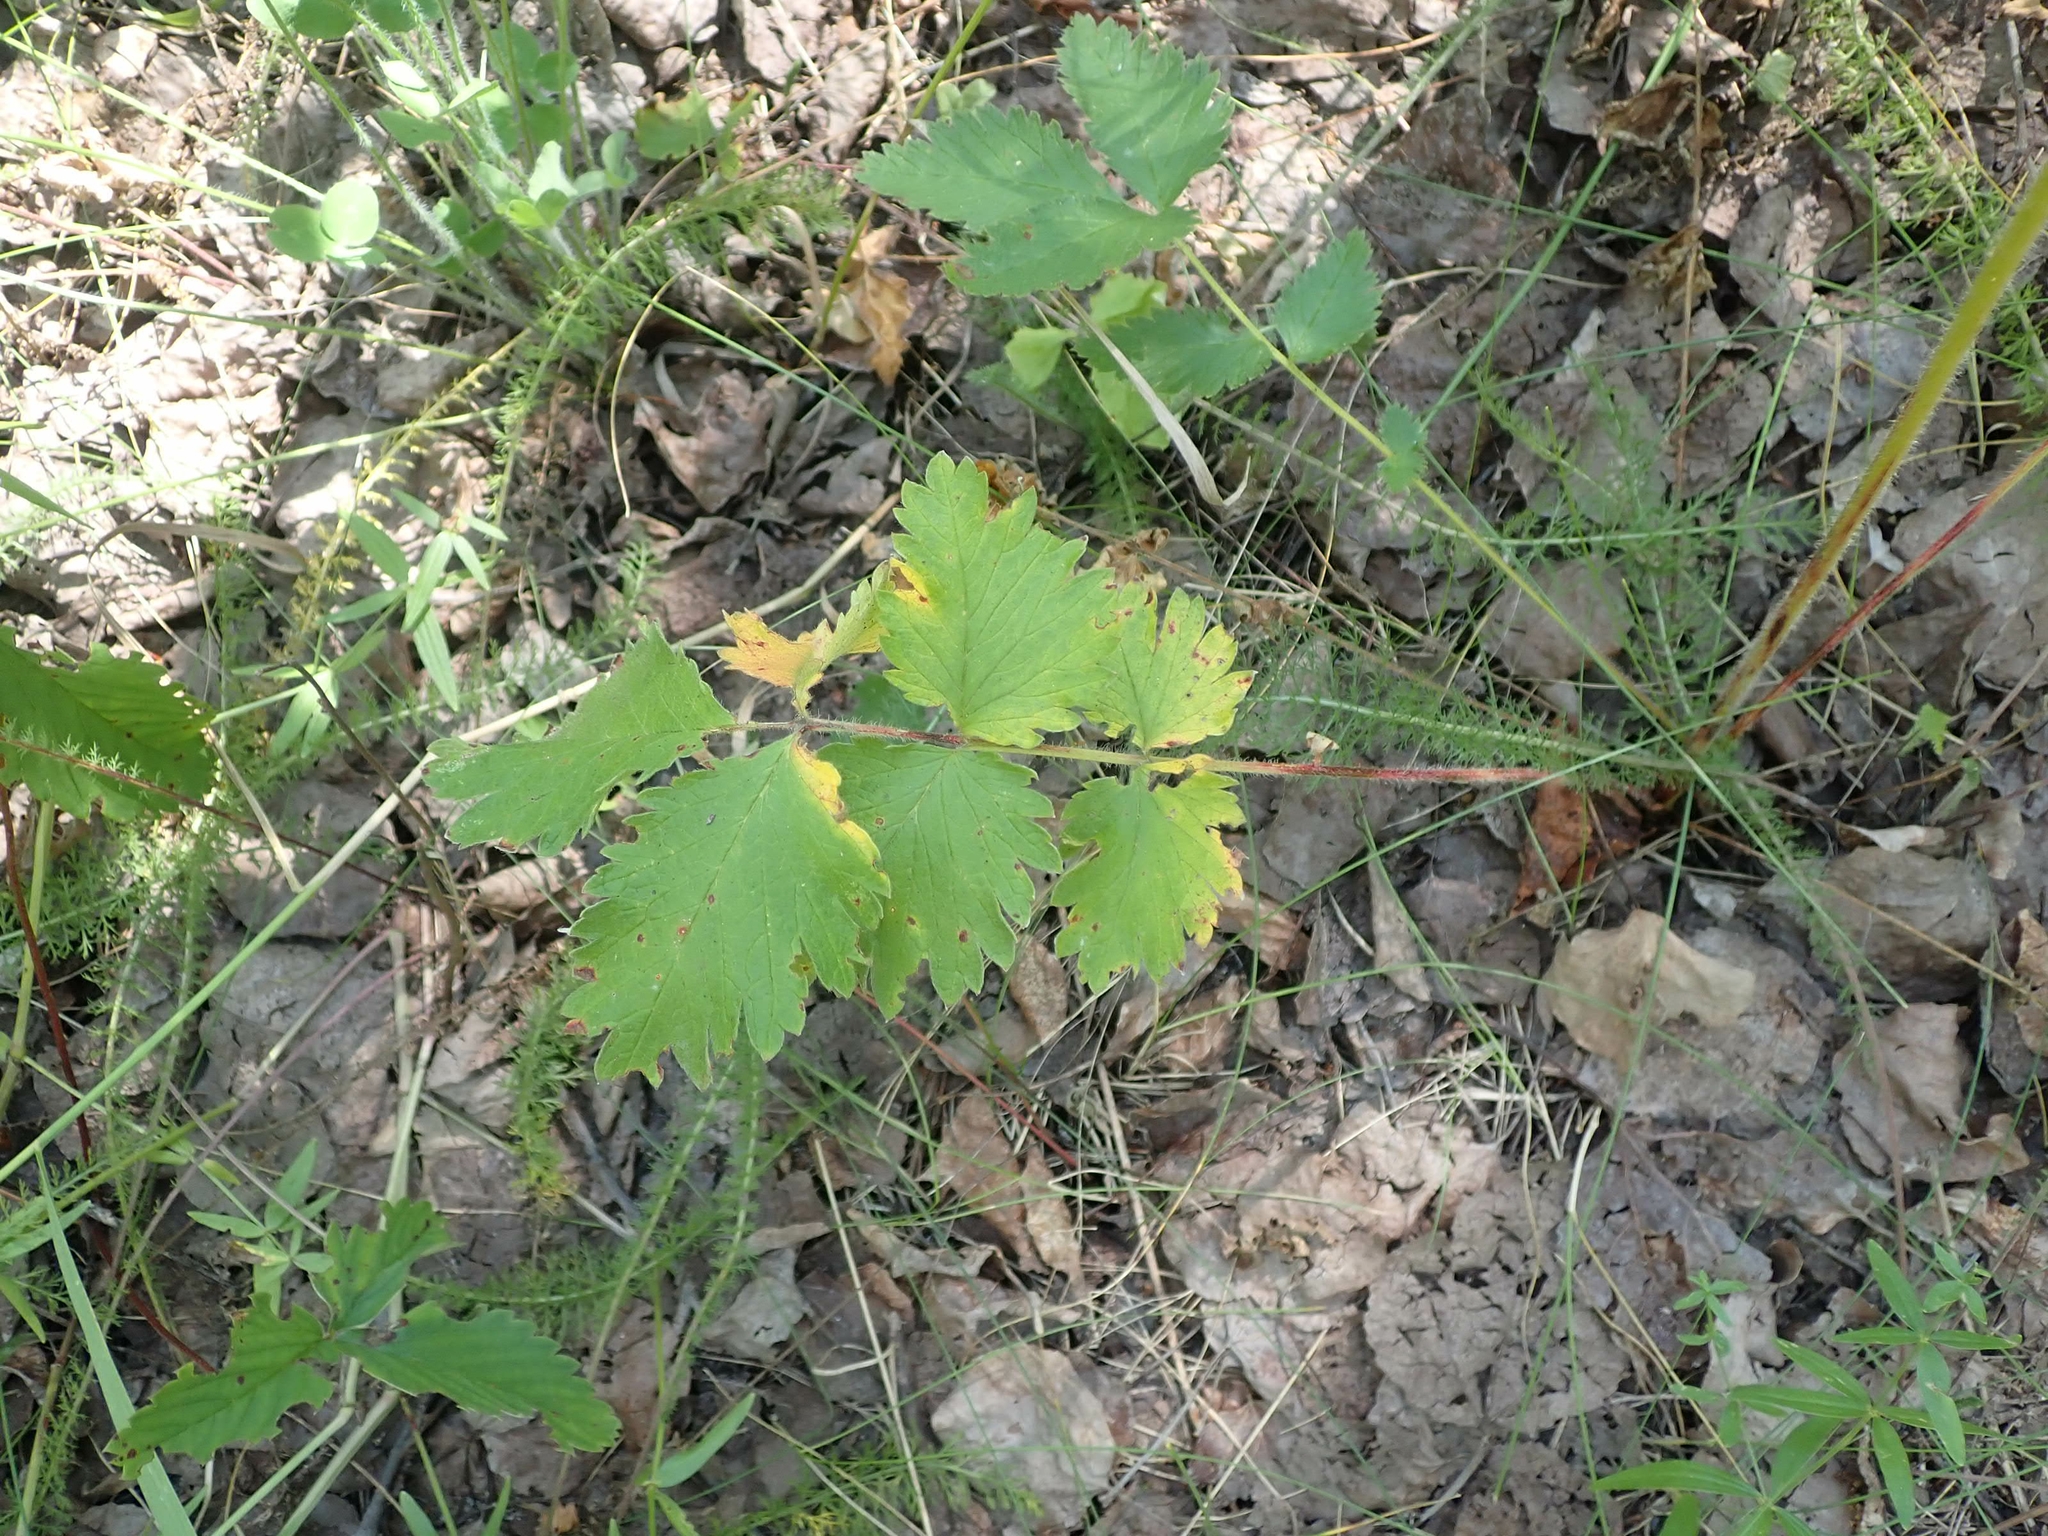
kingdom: Plantae
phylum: Tracheophyta
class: Magnoliopsida
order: Rosales
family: Rosaceae
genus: Drymocallis
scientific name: Drymocallis arguta
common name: Tall cinquefoil
